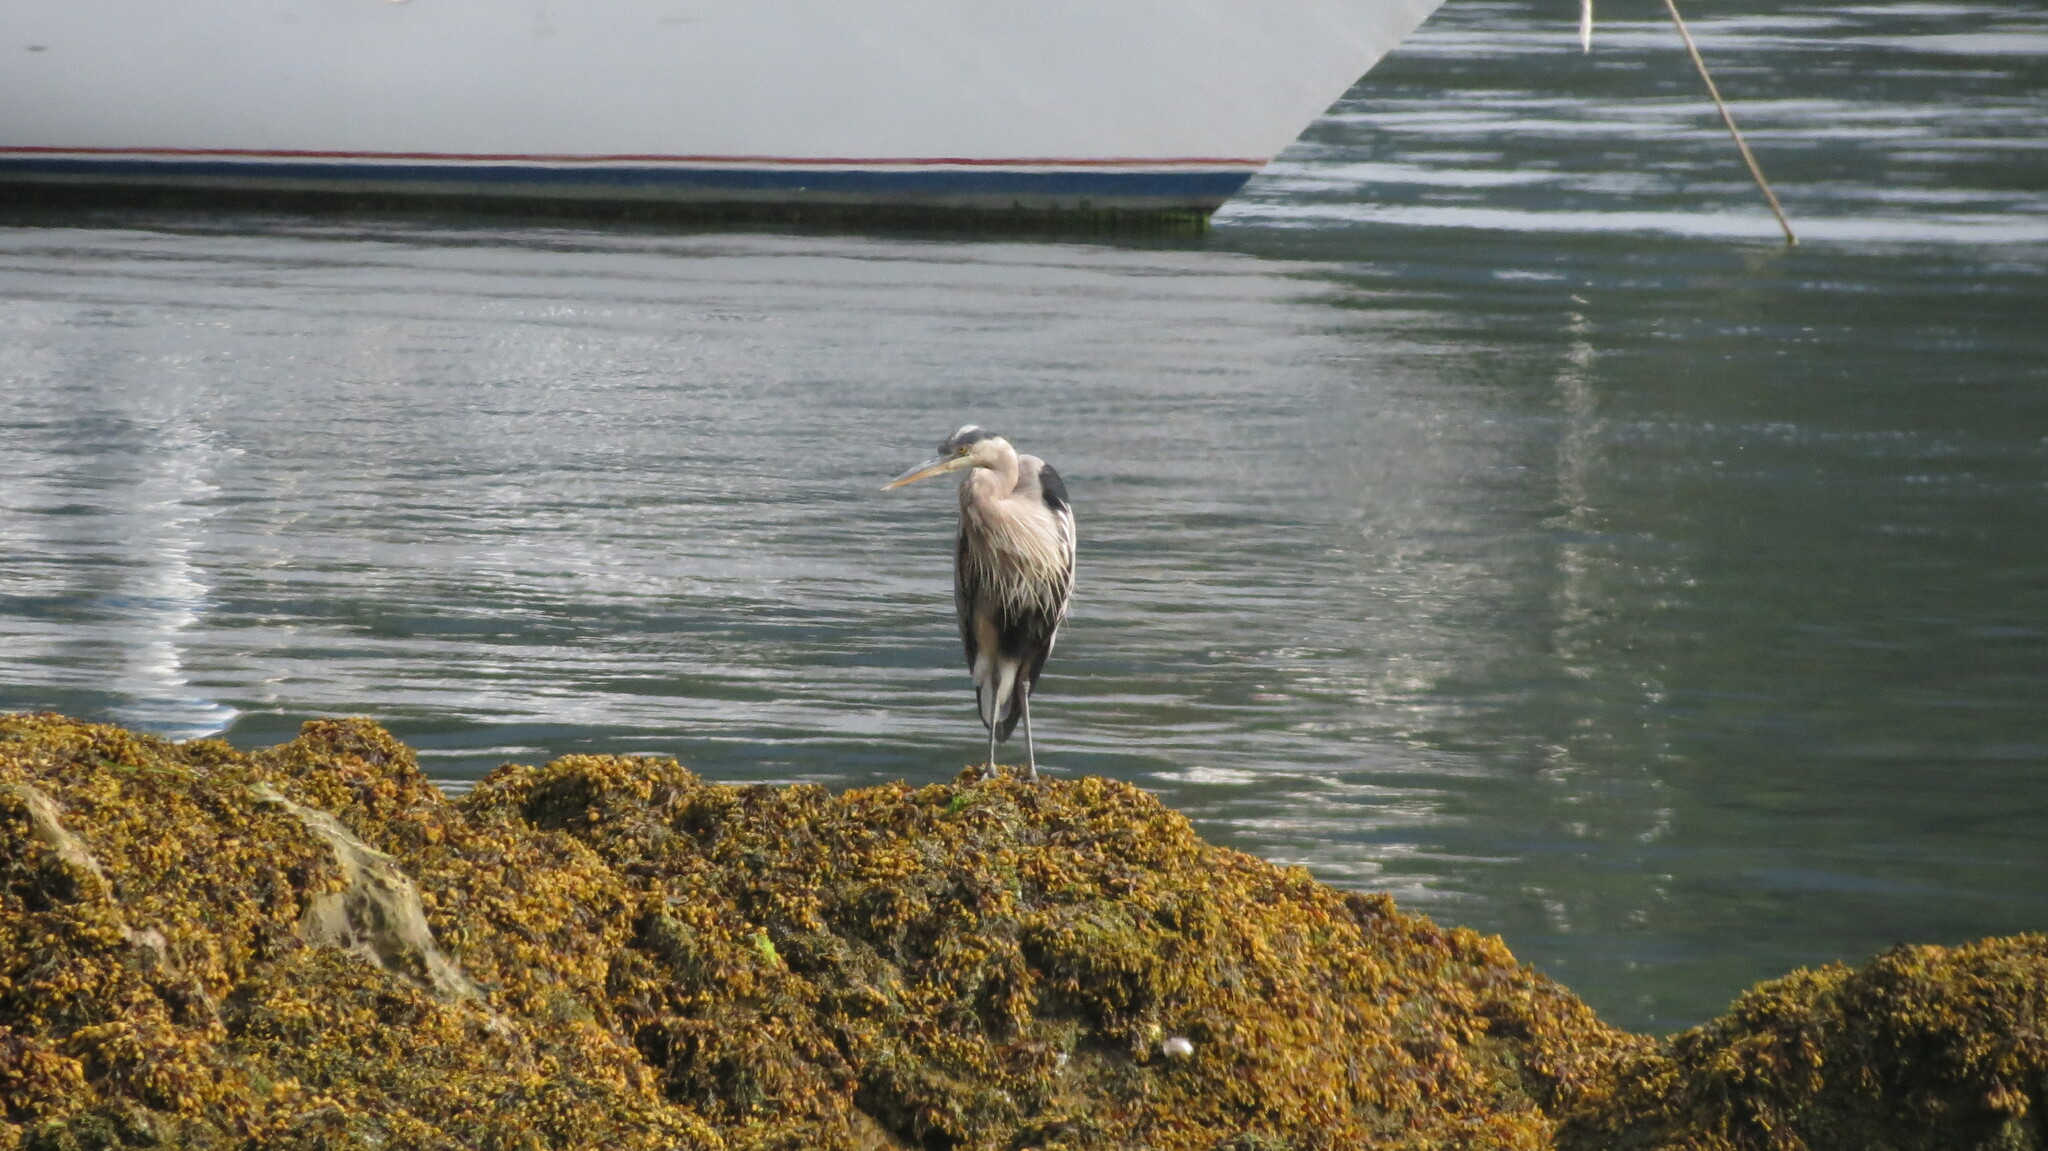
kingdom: Animalia
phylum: Chordata
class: Aves
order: Pelecaniformes
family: Ardeidae
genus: Ardea
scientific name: Ardea herodias
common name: Great blue heron
